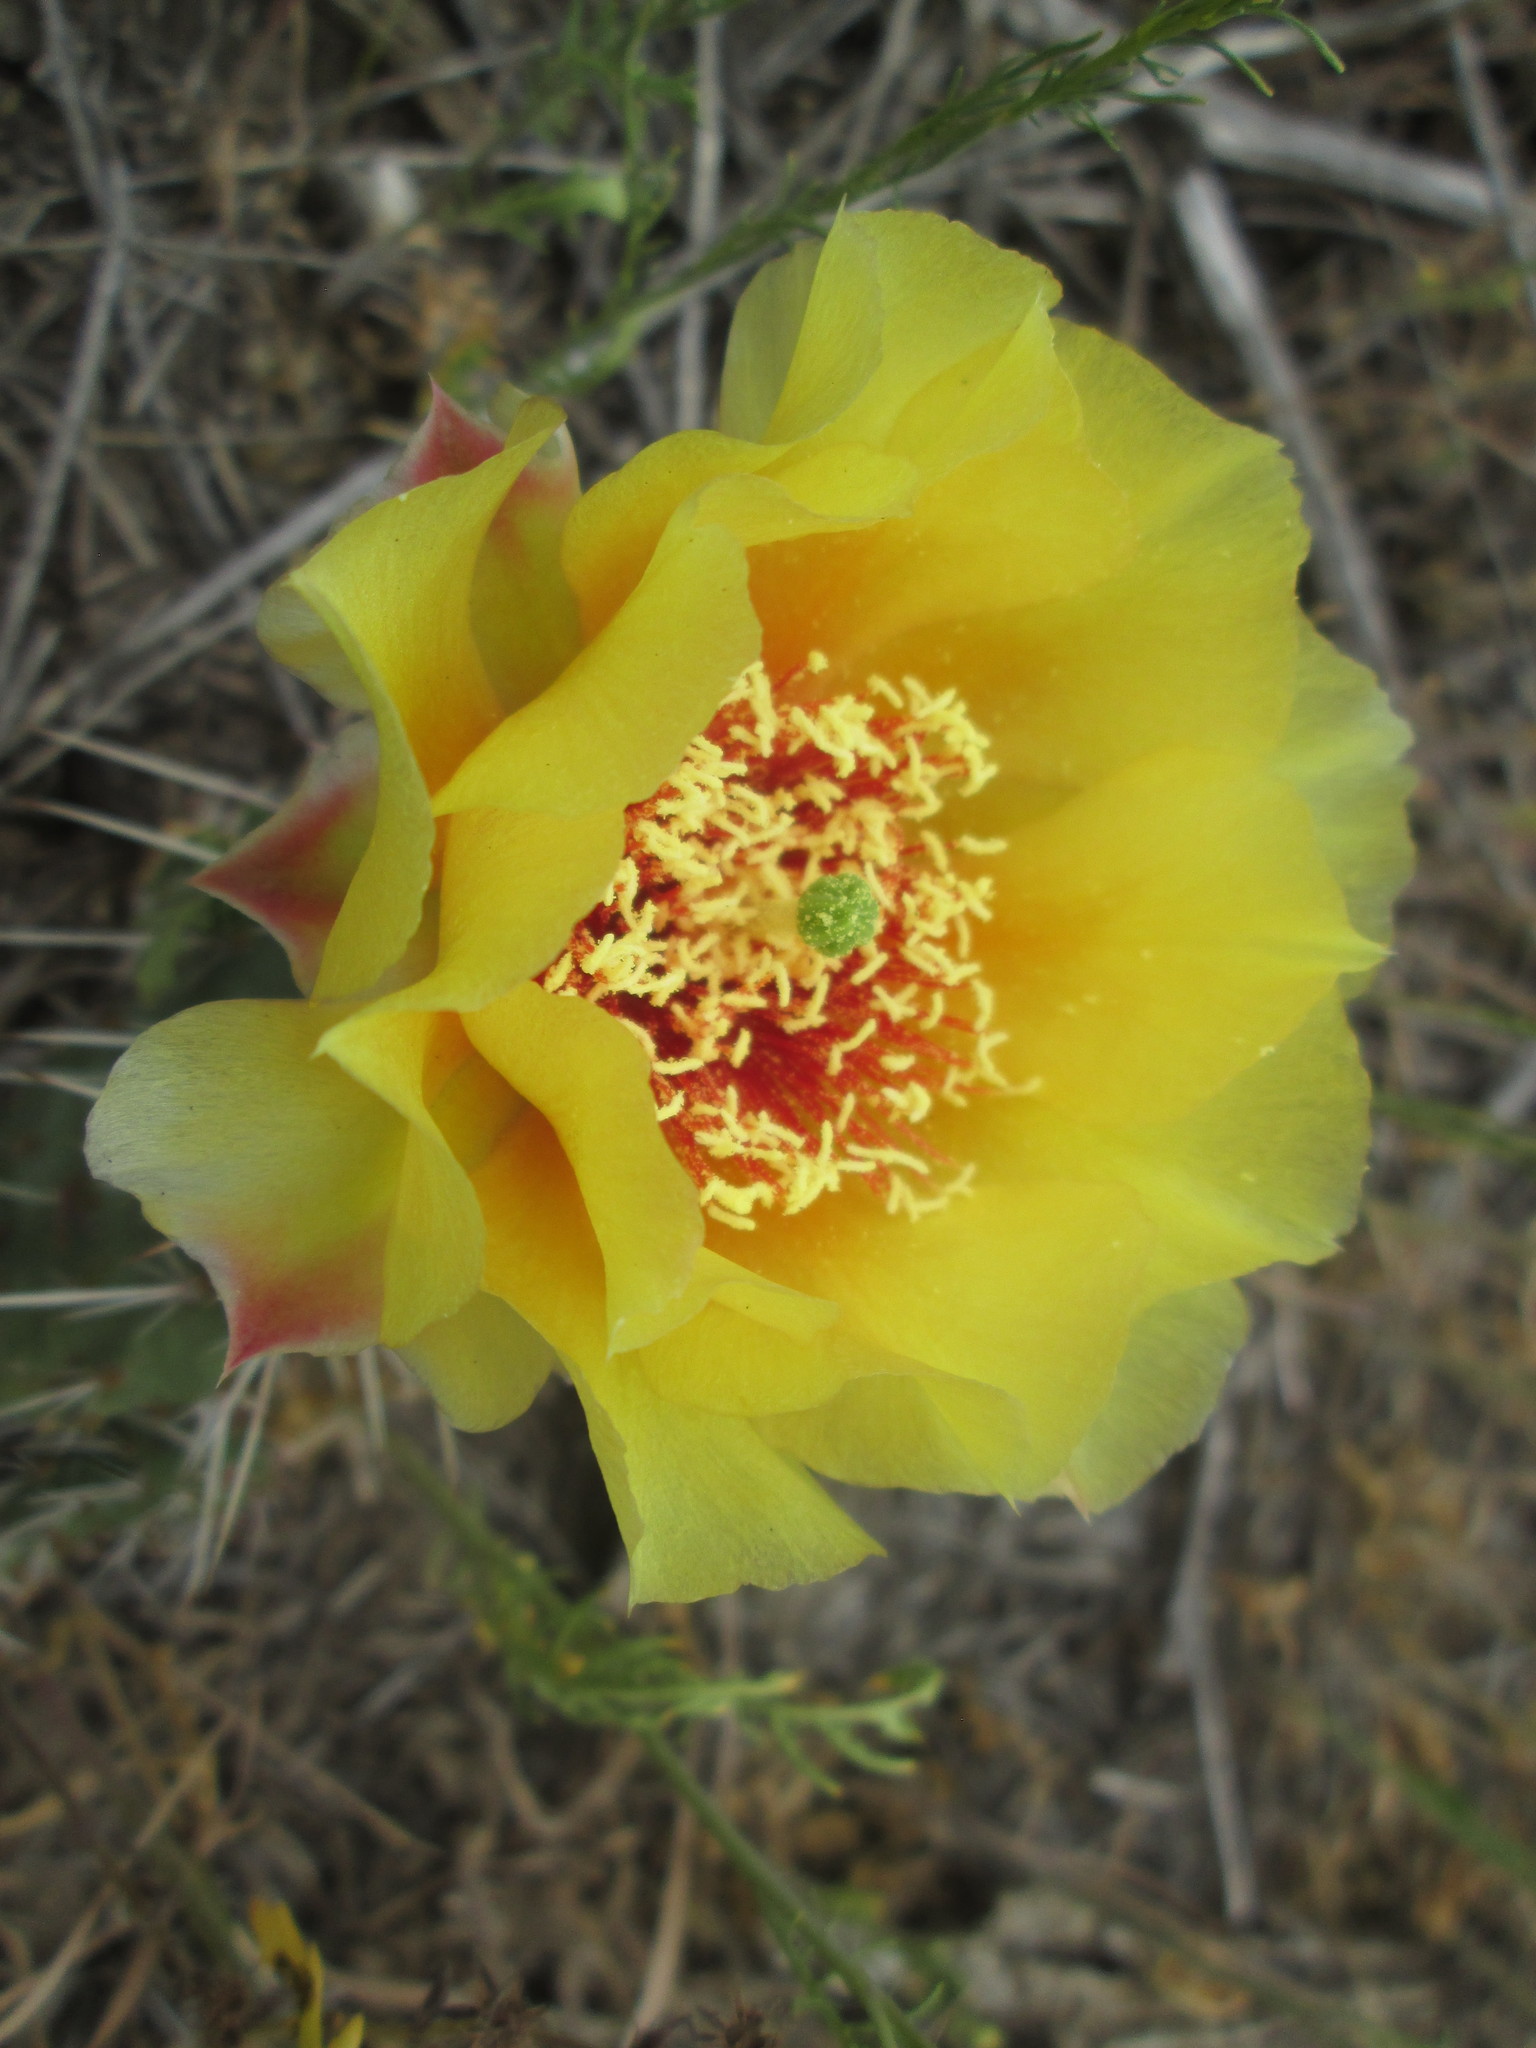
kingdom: Plantae
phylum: Tracheophyta
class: Magnoliopsida
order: Caryophyllales
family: Cactaceae
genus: Opuntia
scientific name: Opuntia polyacantha
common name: Plains prickly-pear
